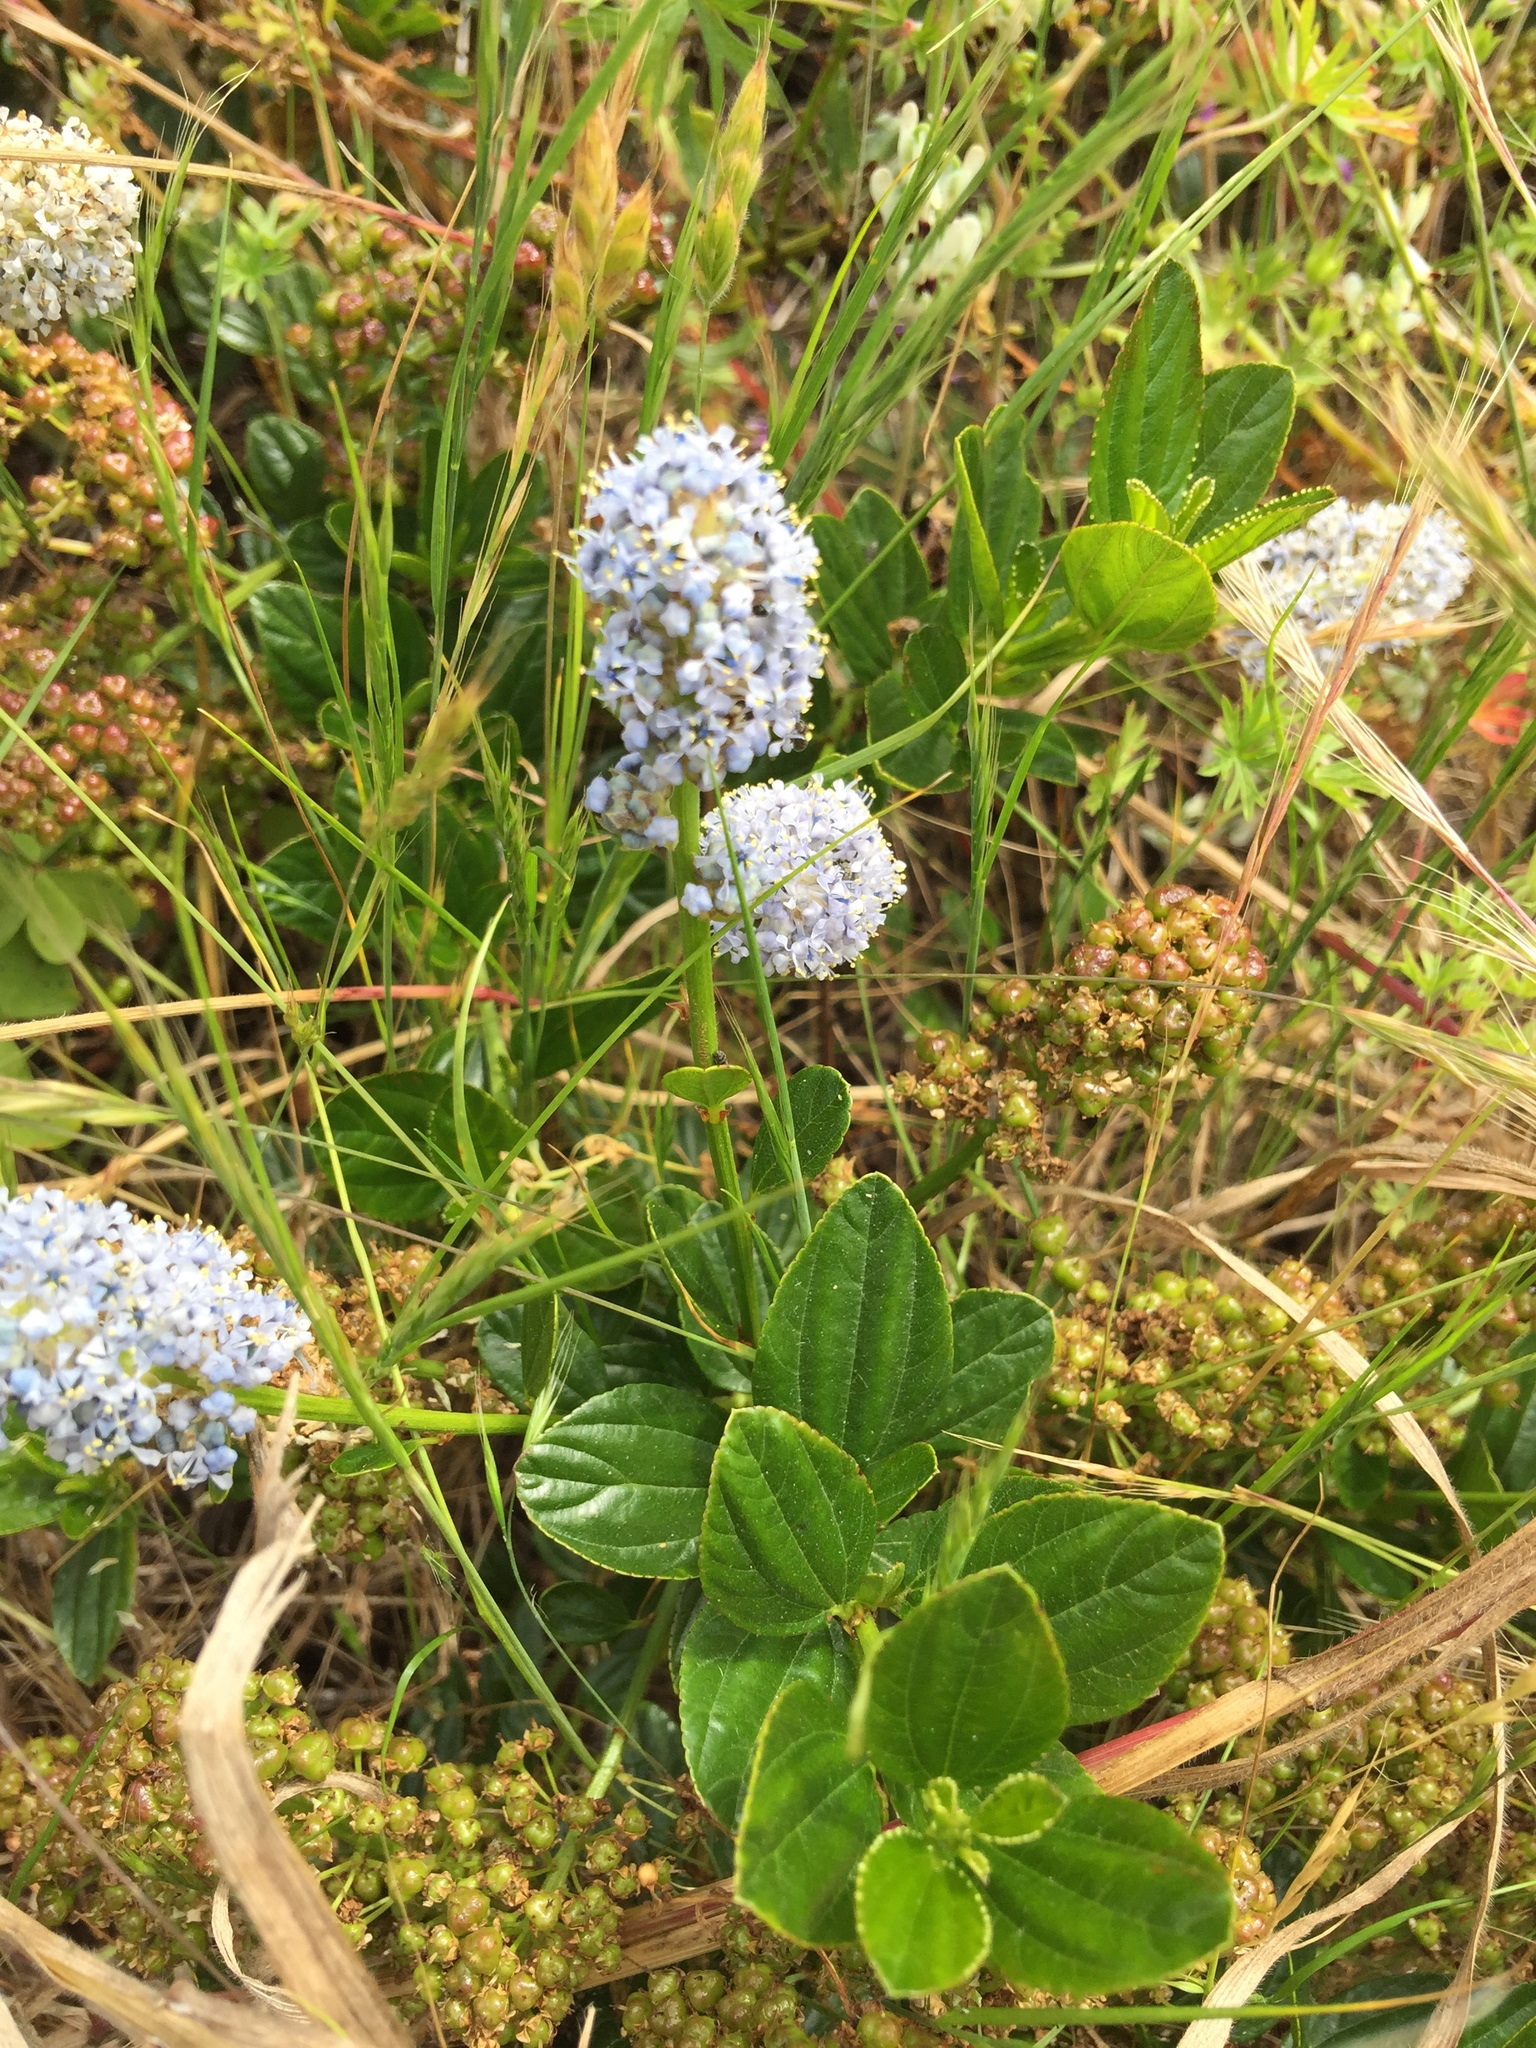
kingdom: Plantae
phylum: Tracheophyta
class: Magnoliopsida
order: Rosales
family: Rhamnaceae
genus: Ceanothus
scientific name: Ceanothus thyrsiflorus
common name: California-lilac
